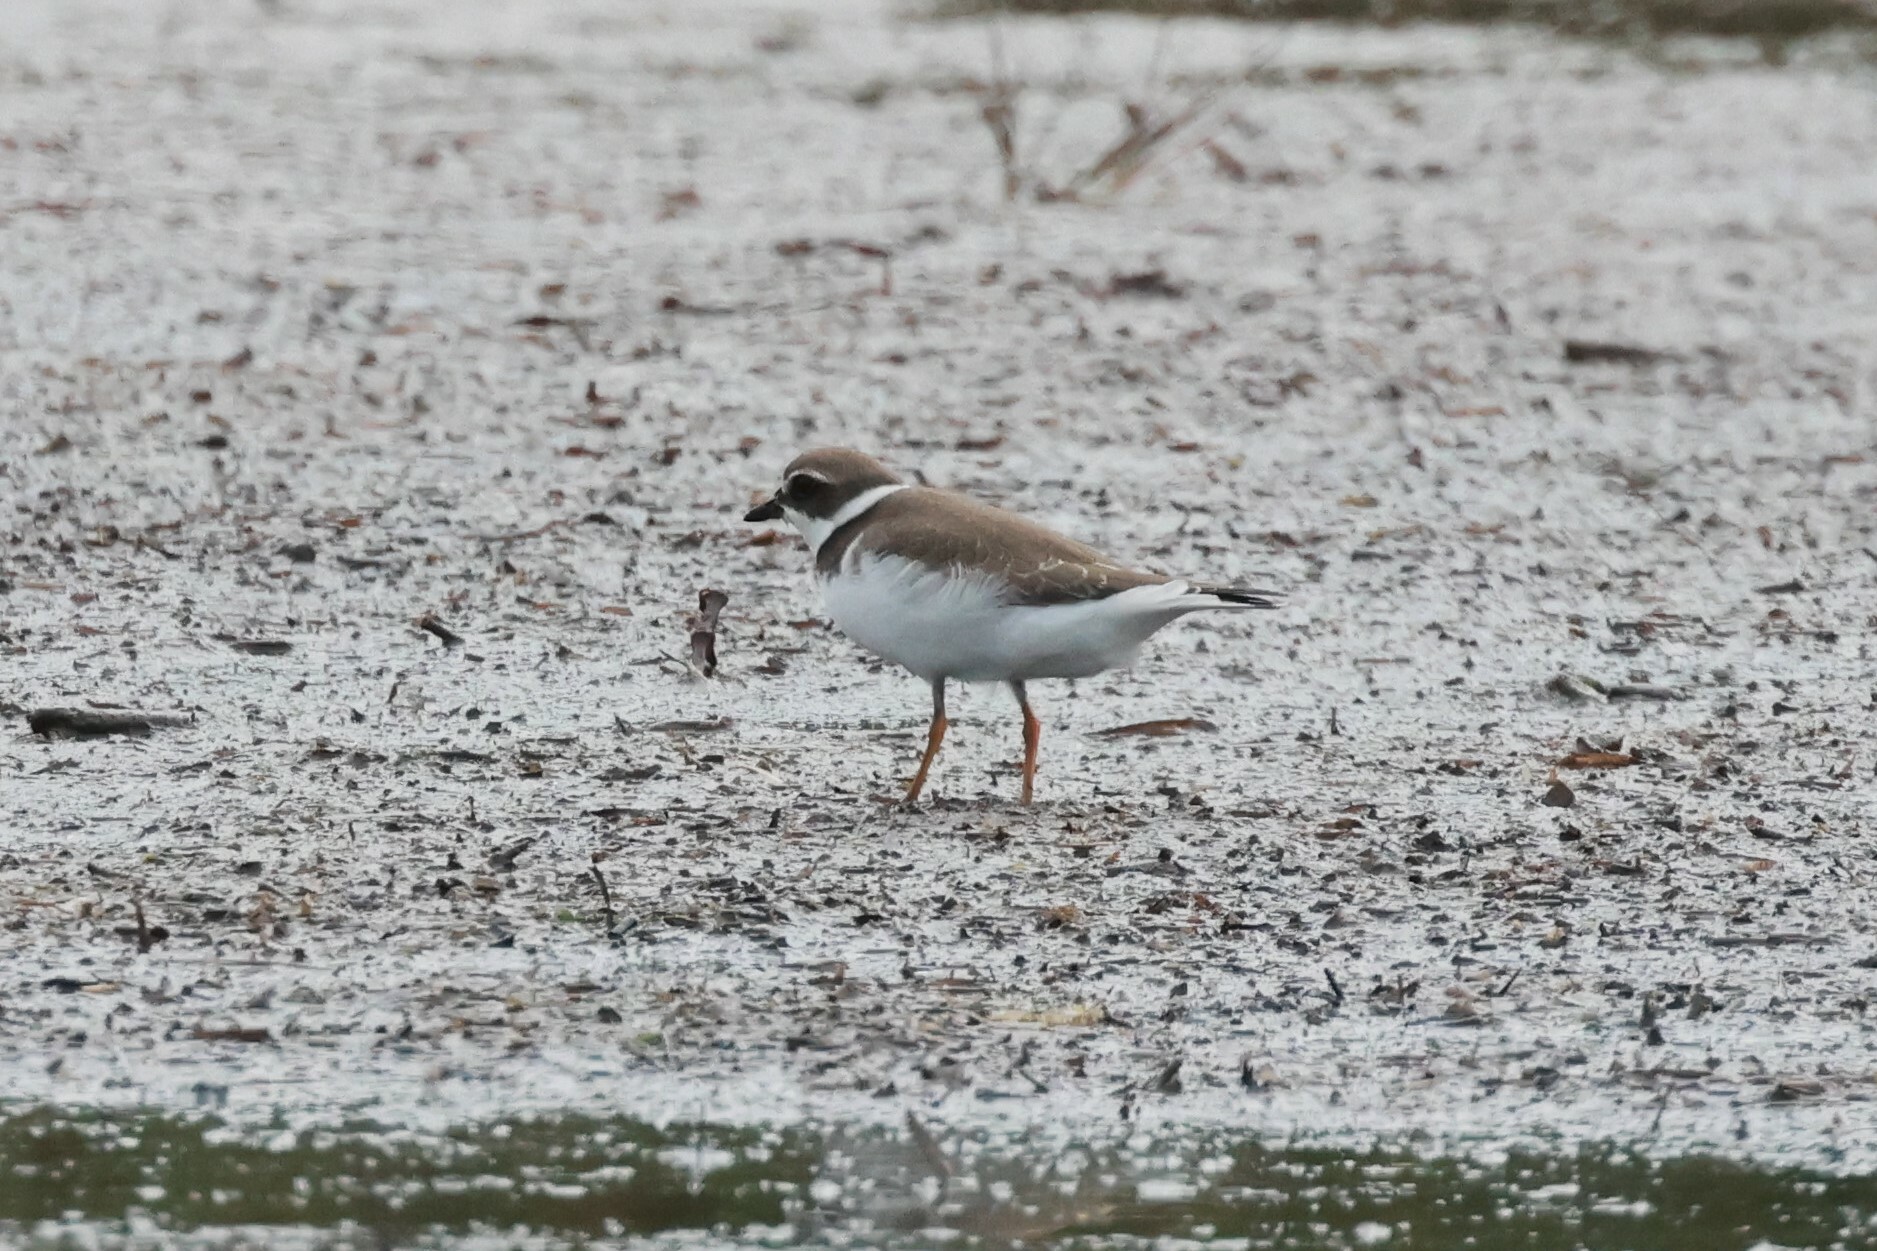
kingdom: Animalia
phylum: Chordata
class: Aves
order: Charadriiformes
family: Charadriidae
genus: Charadrius
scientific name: Charadrius semipalmatus
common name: Semipalmated plover
